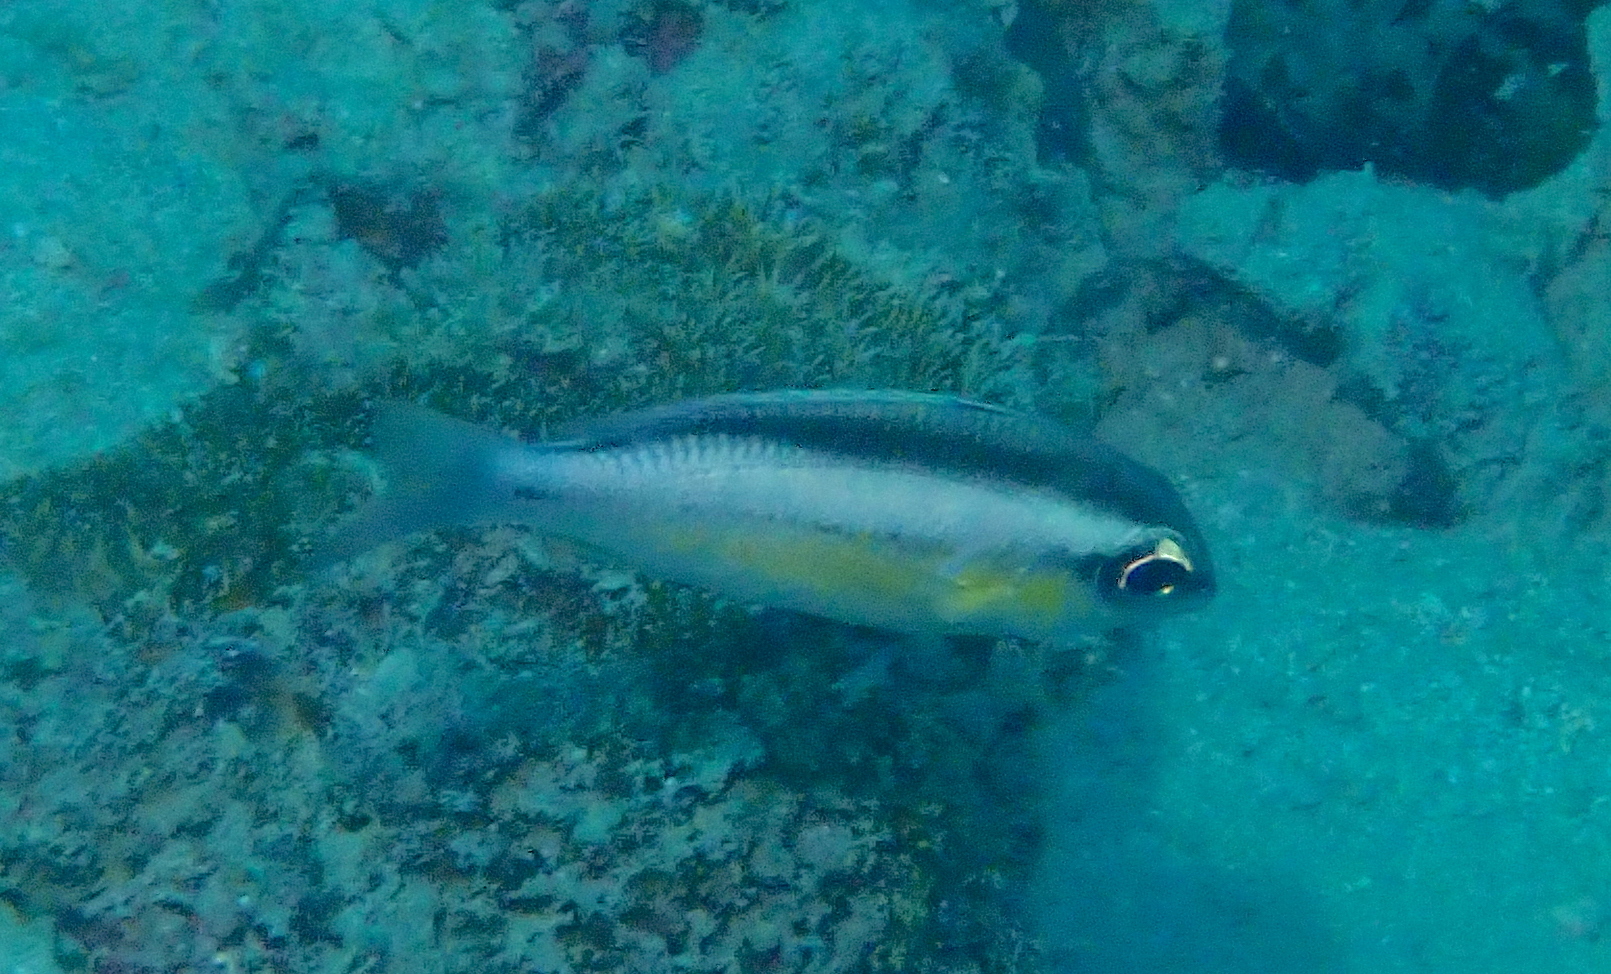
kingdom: Animalia
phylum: Chordata
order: Perciformes
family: Nemipteridae
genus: Scolopsis
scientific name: Scolopsis margaritifera
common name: Pearly monocle bream
